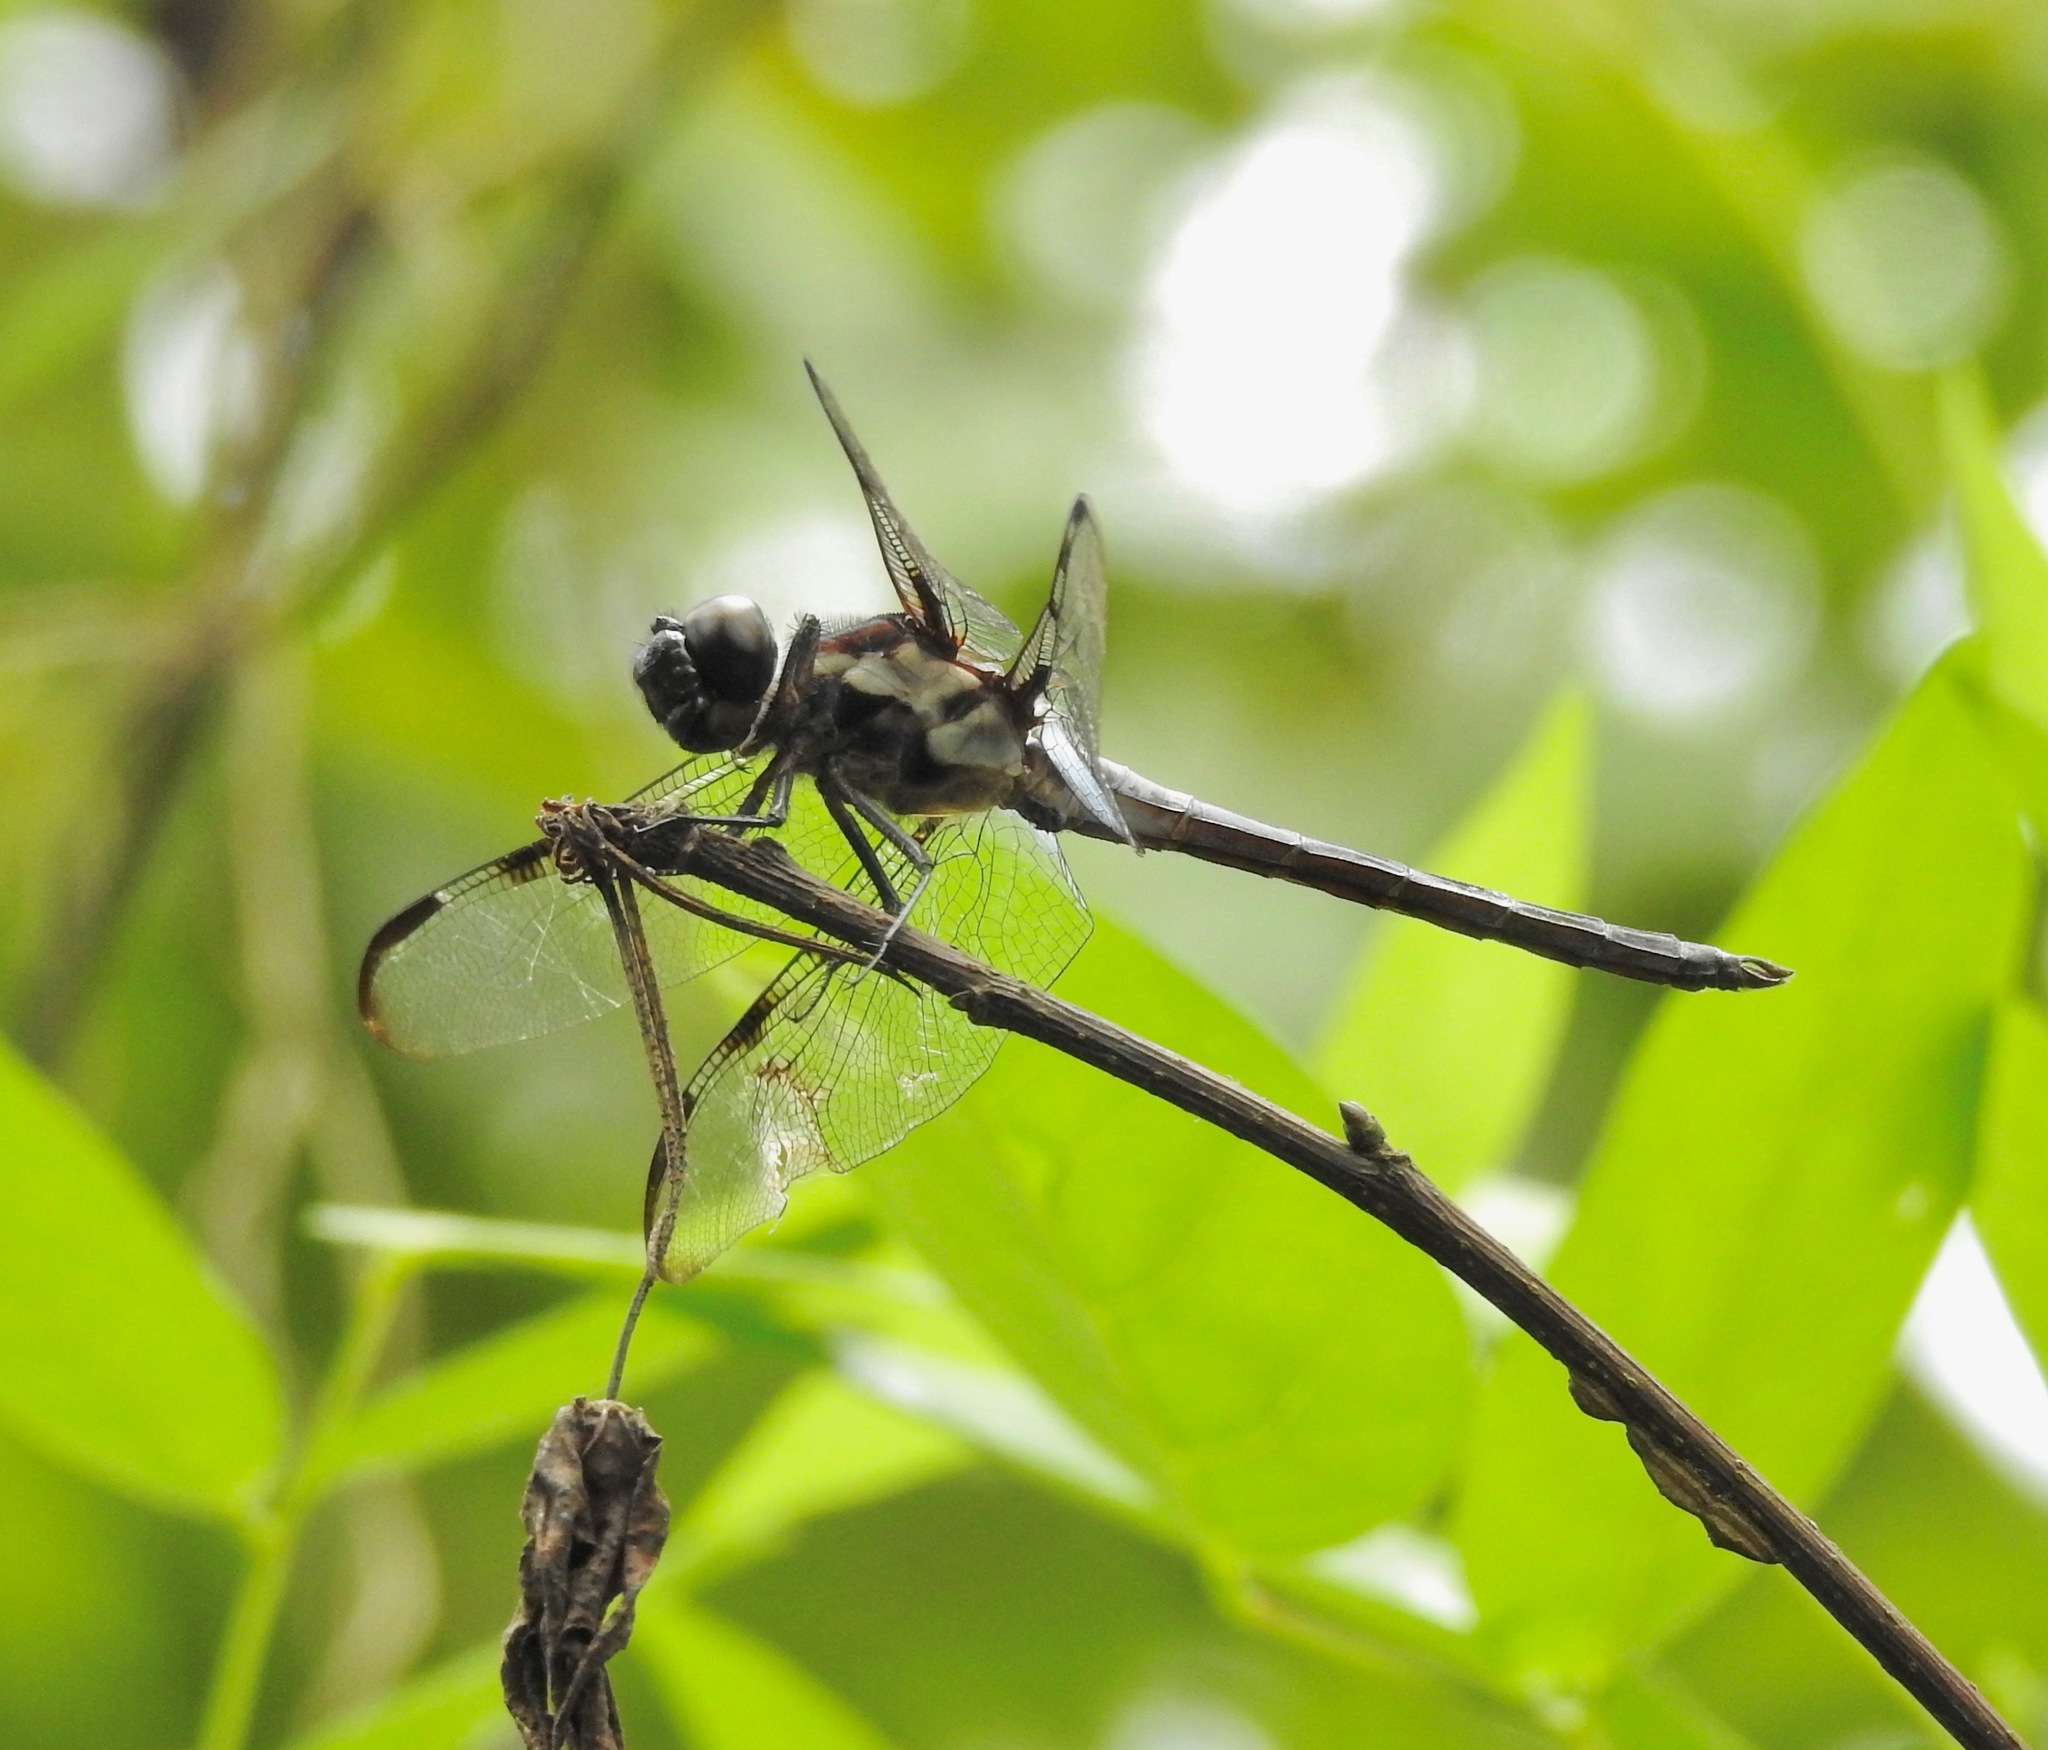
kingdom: Animalia
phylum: Arthropoda
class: Insecta
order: Odonata
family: Libellulidae
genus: Libellula
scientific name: Libellula axilena
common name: Bar-winged skimmer
